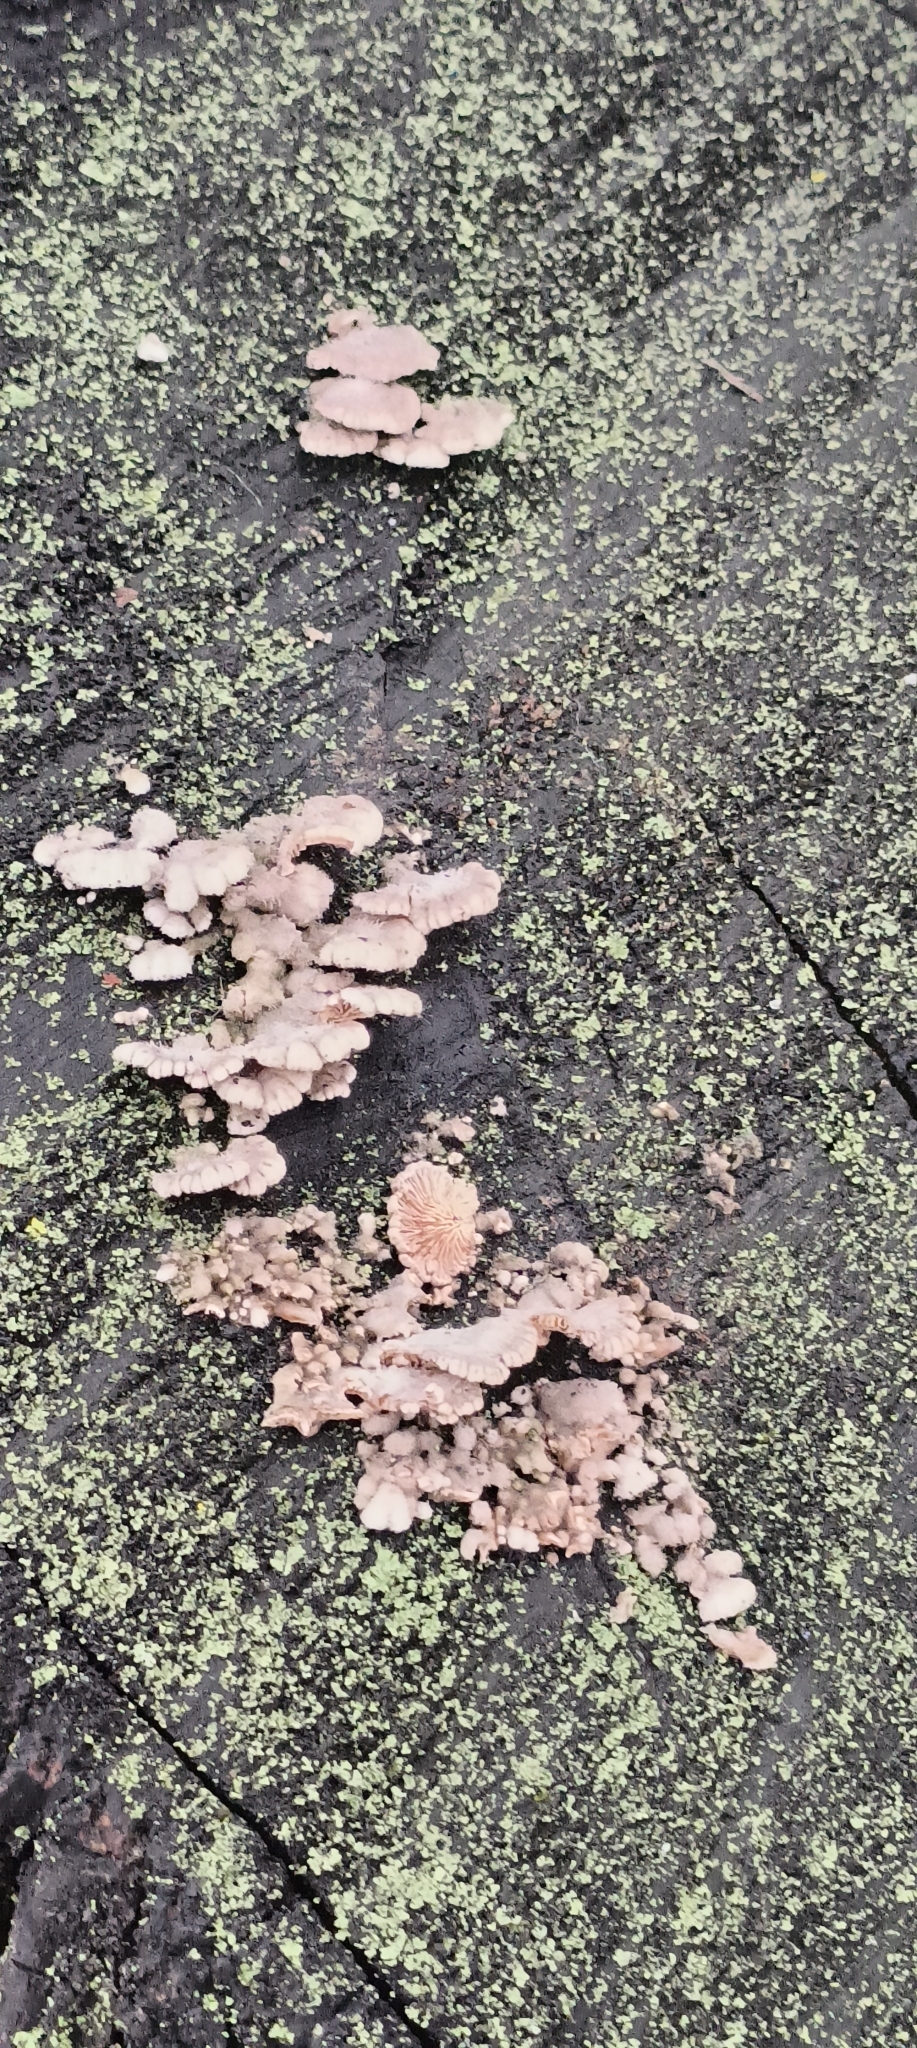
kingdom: Fungi
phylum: Basidiomycota
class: Agaricomycetes
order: Agaricales
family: Schizophyllaceae
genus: Schizophyllum
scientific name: Schizophyllum commune
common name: Common porecrust
